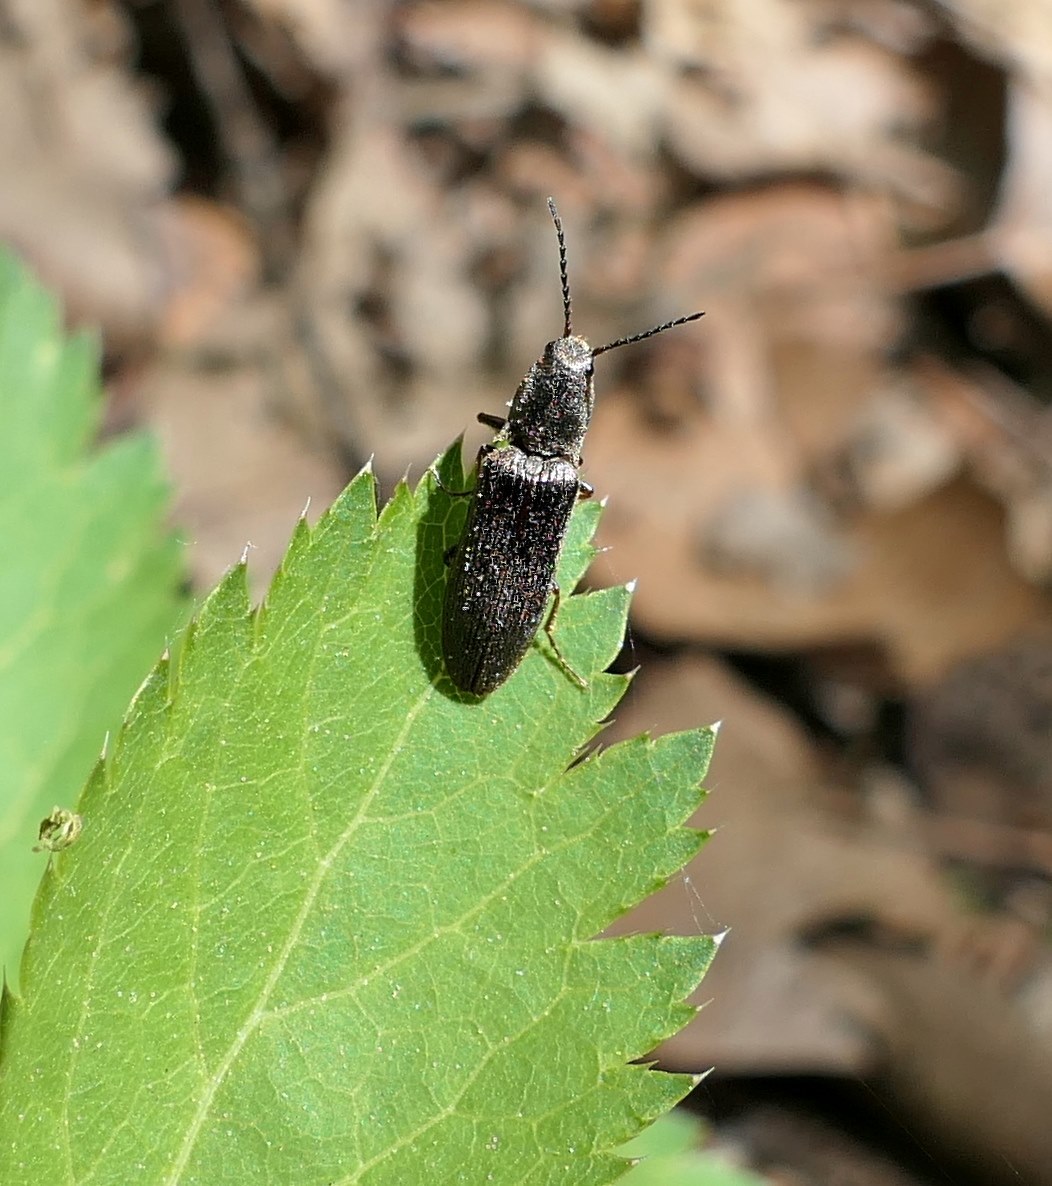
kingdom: Animalia
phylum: Arthropoda
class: Insecta
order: Coleoptera
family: Elateridae
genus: Sylvanelater
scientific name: Sylvanelater cylindriformis
